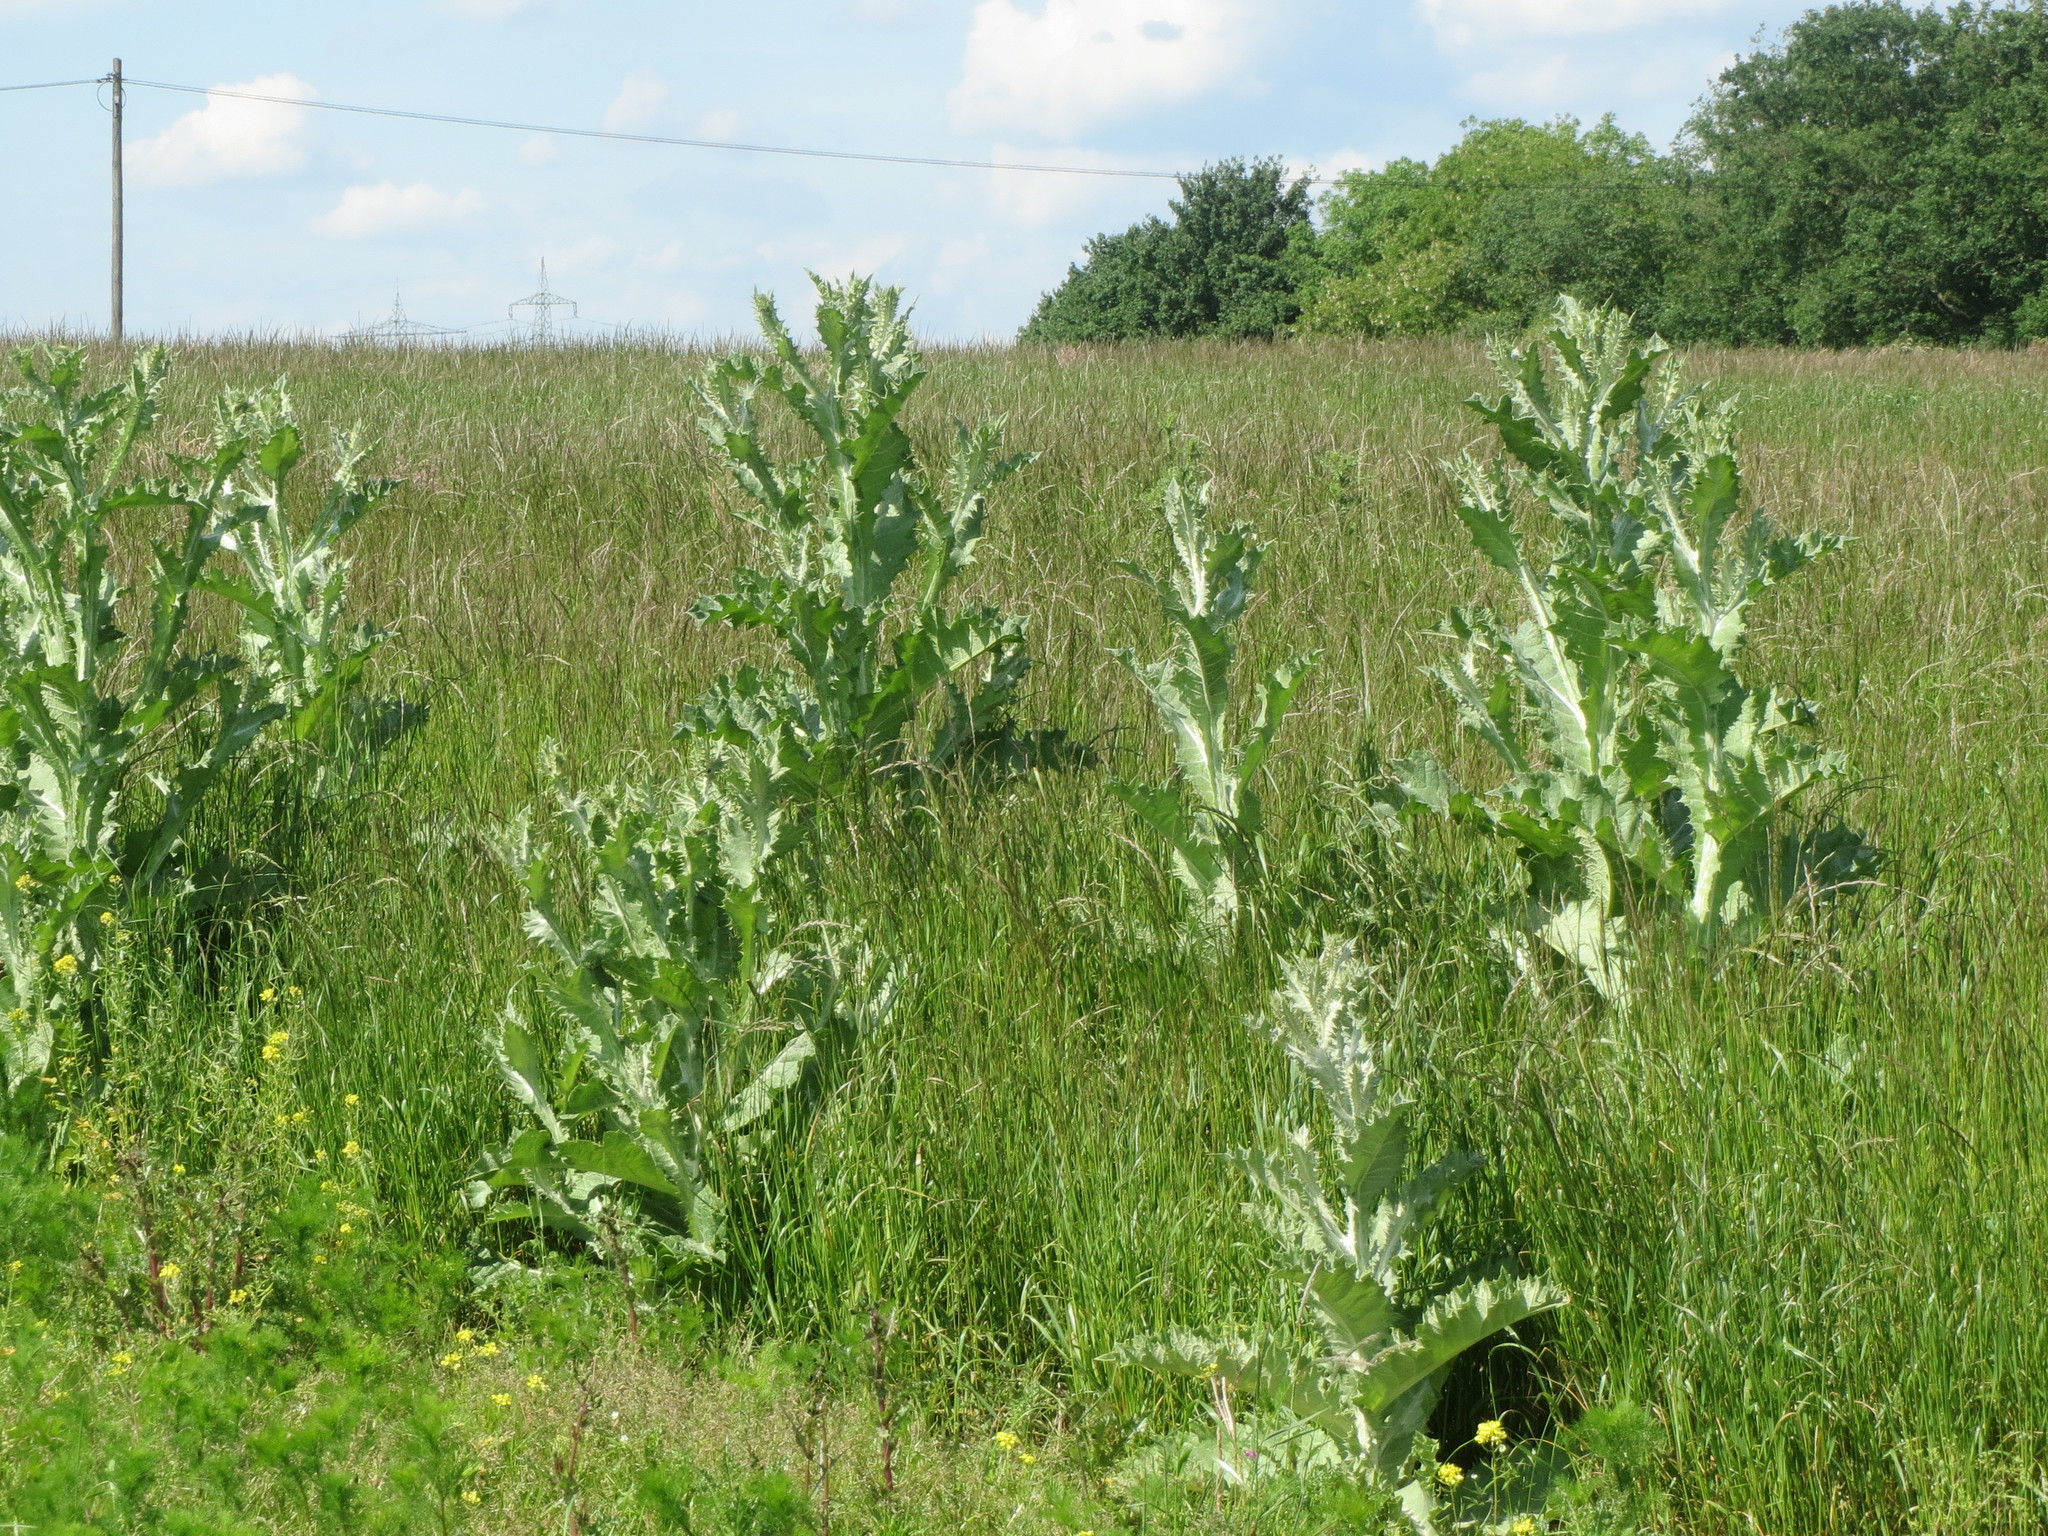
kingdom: Plantae
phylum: Tracheophyta
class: Magnoliopsida
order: Asterales
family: Asteraceae
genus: Onopordum
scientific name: Onopordum acanthium
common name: Scotch thistle
